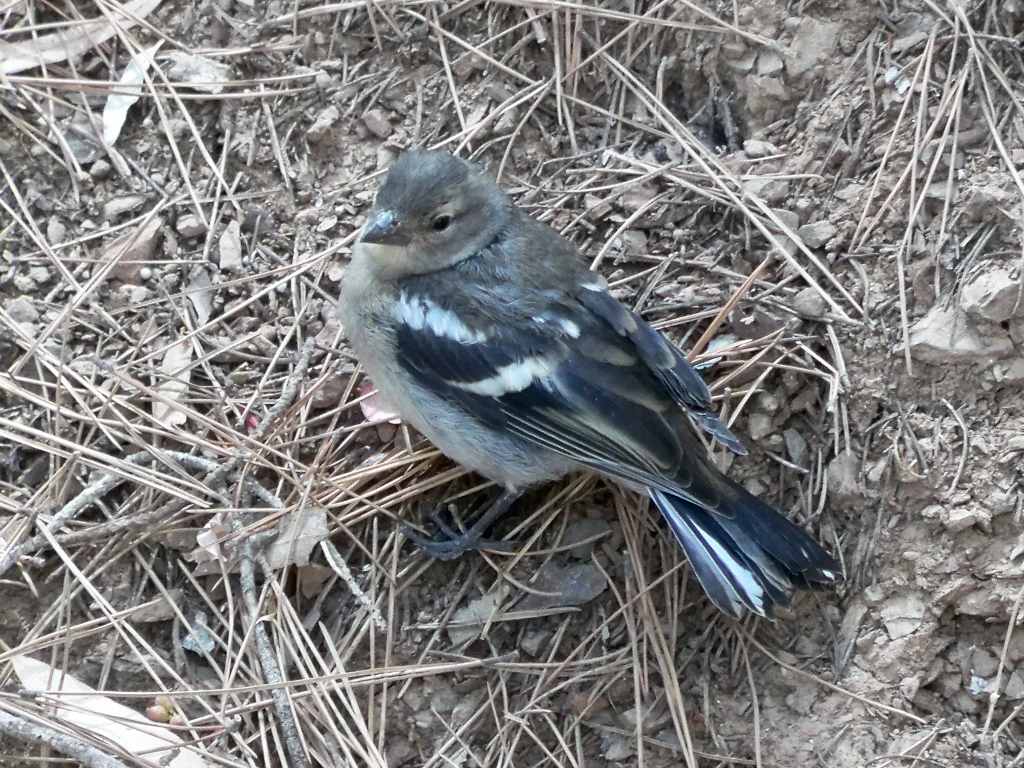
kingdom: Animalia
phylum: Chordata
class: Aves
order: Passeriformes
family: Fringillidae
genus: Fringilla
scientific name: Fringilla coelebs
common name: Common chaffinch
